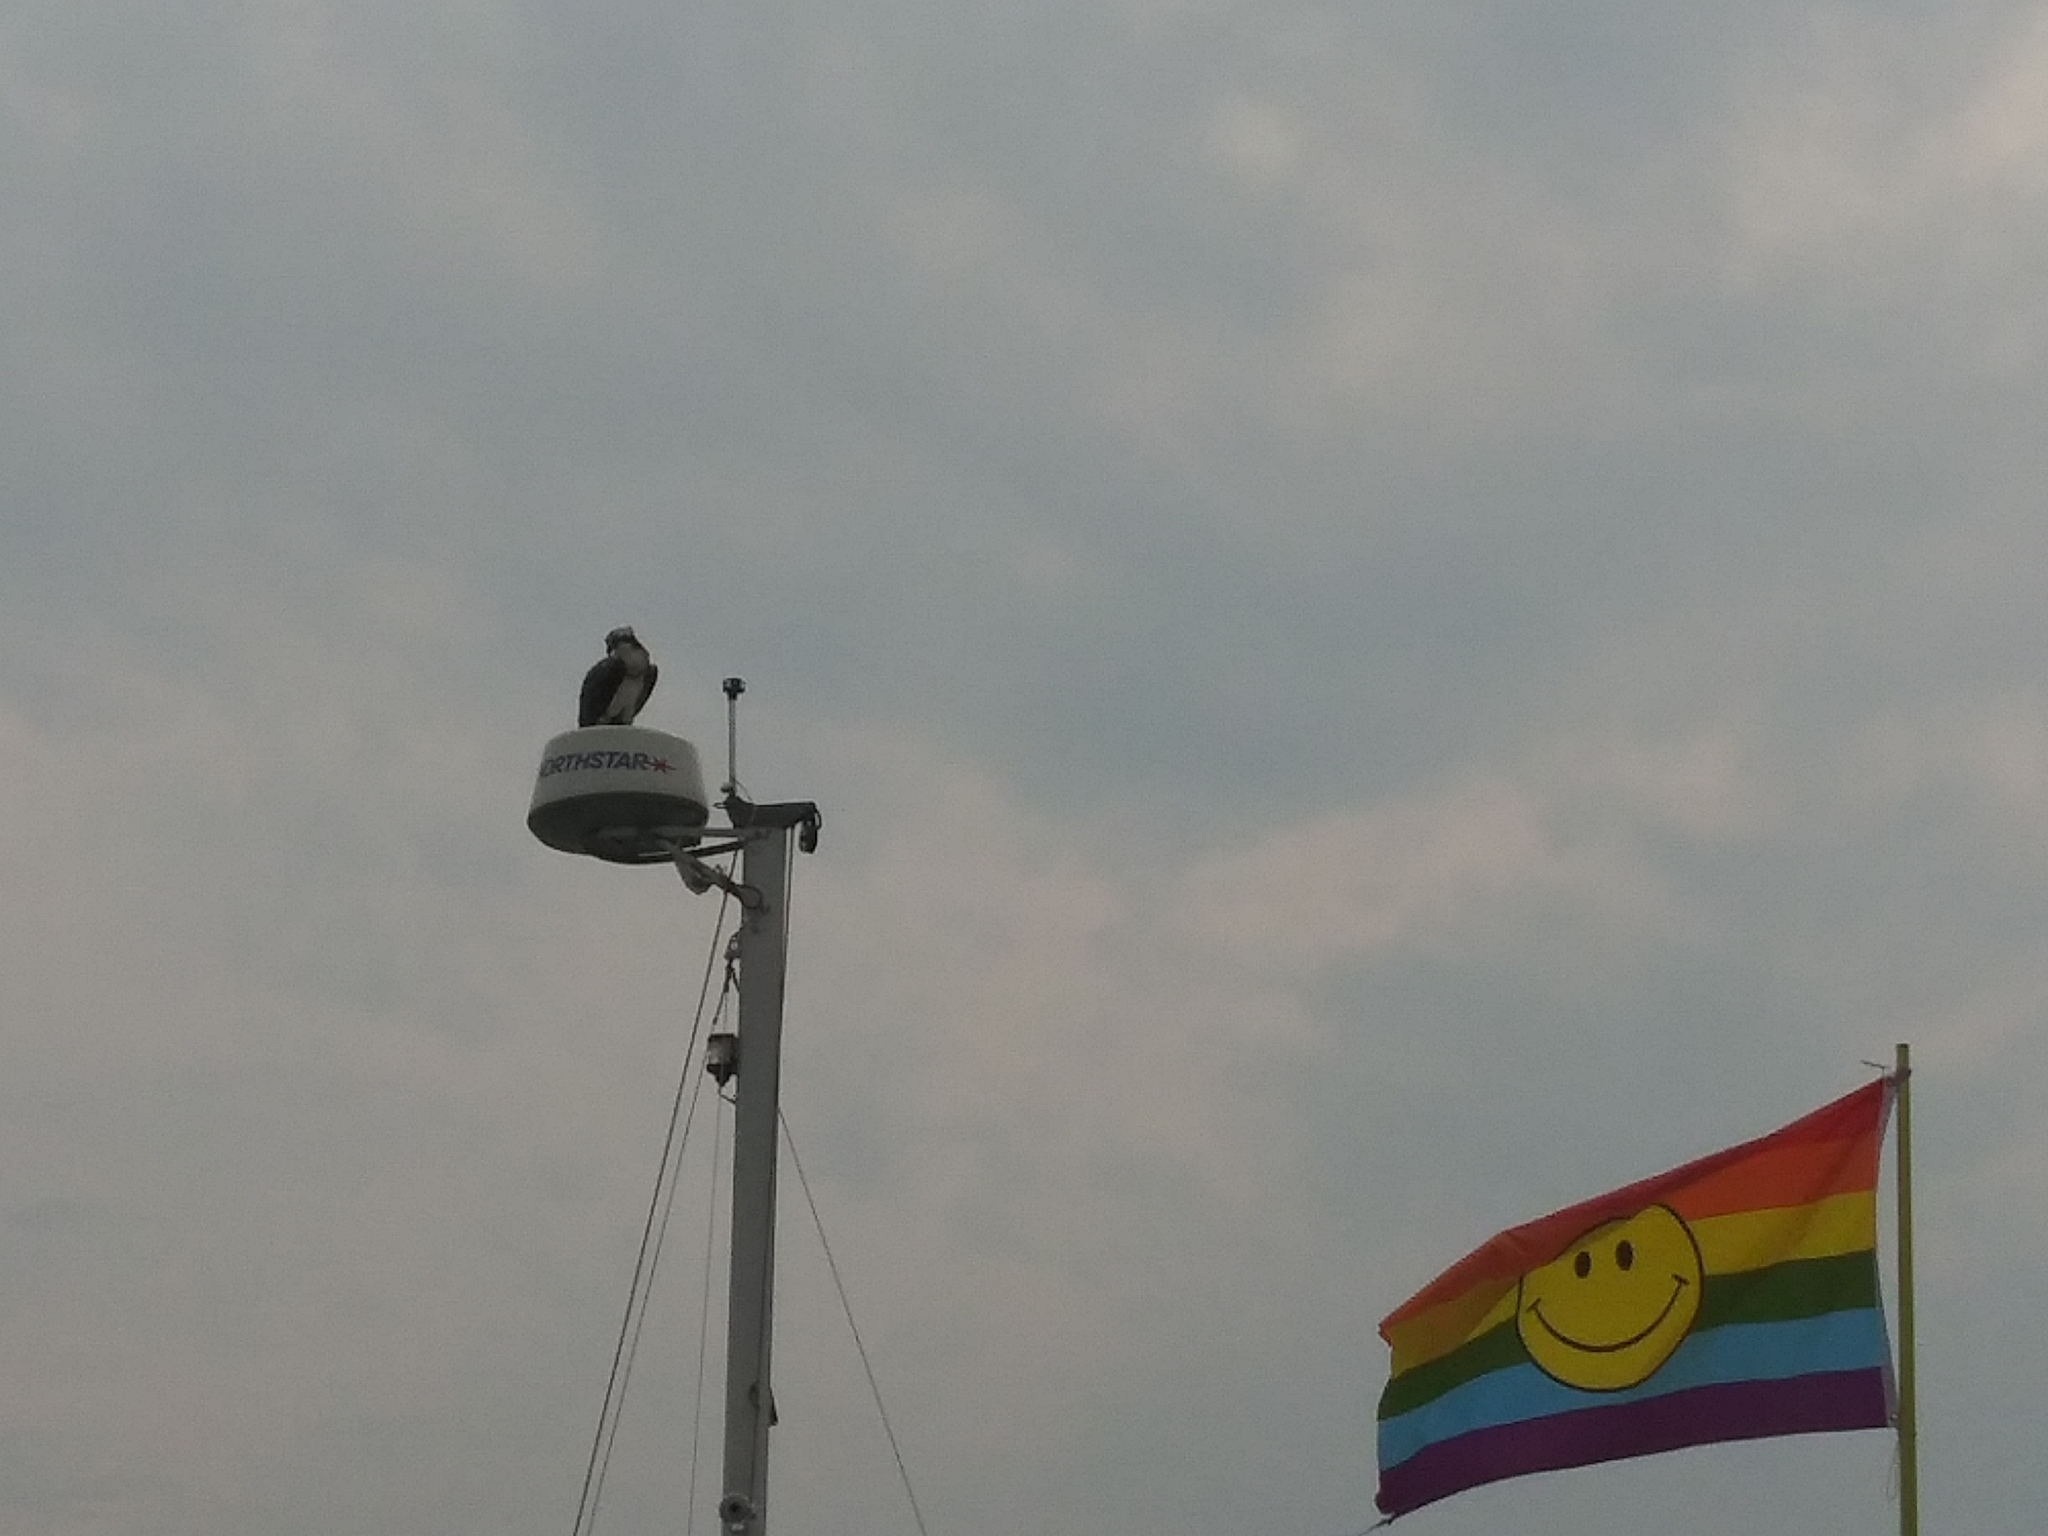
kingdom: Animalia
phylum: Chordata
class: Aves
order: Accipitriformes
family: Pandionidae
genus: Pandion
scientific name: Pandion haliaetus
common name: Osprey
